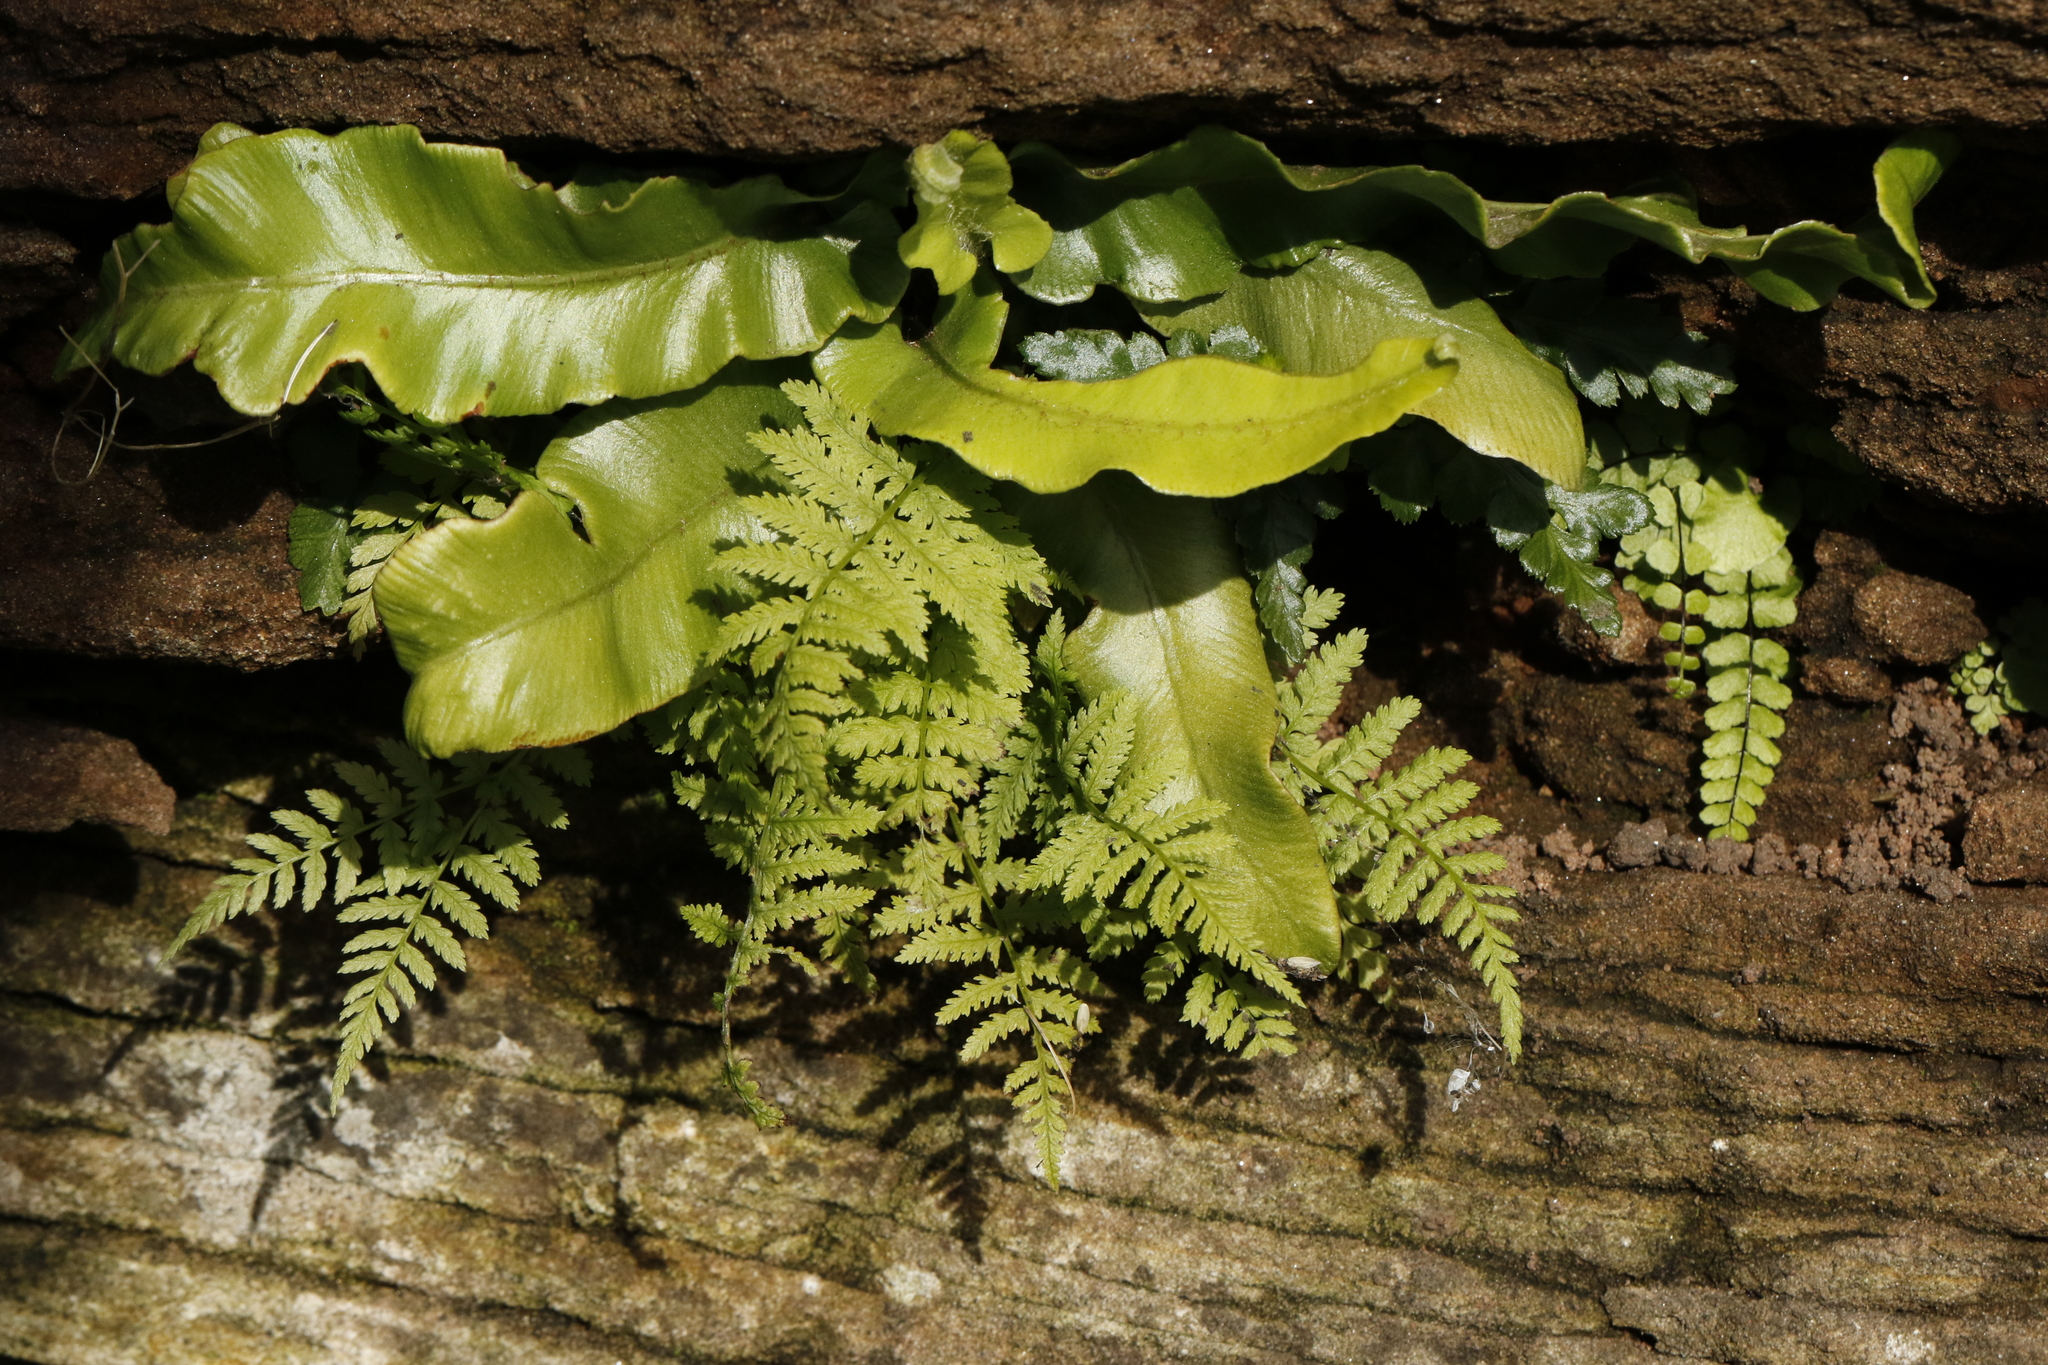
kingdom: Plantae
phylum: Tracheophyta
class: Polypodiopsida
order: Polypodiales
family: Aspleniaceae
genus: Asplenium
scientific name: Asplenium scolopendrium
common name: Hart's-tongue fern
